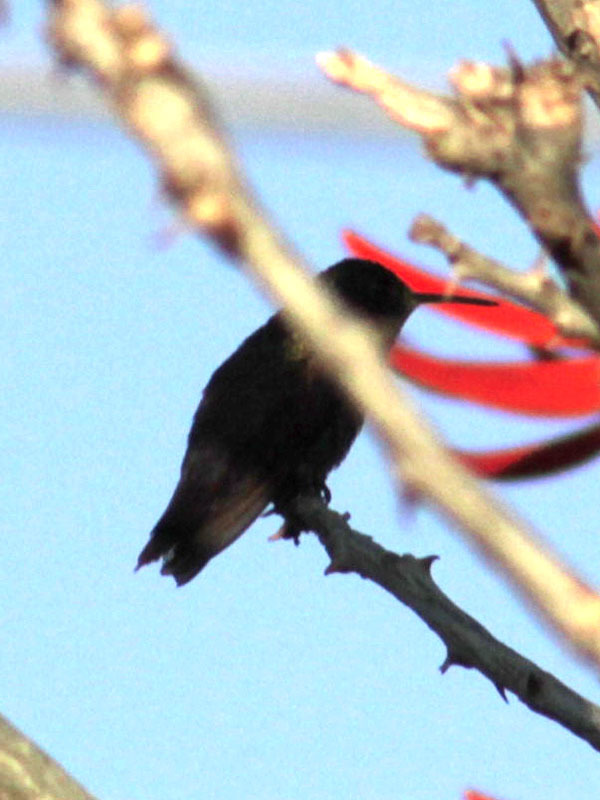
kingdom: Animalia
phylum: Chordata
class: Aves
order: Apodiformes
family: Trochilidae
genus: Saucerottia
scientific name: Saucerottia beryllina
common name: Berylline hummingbird
